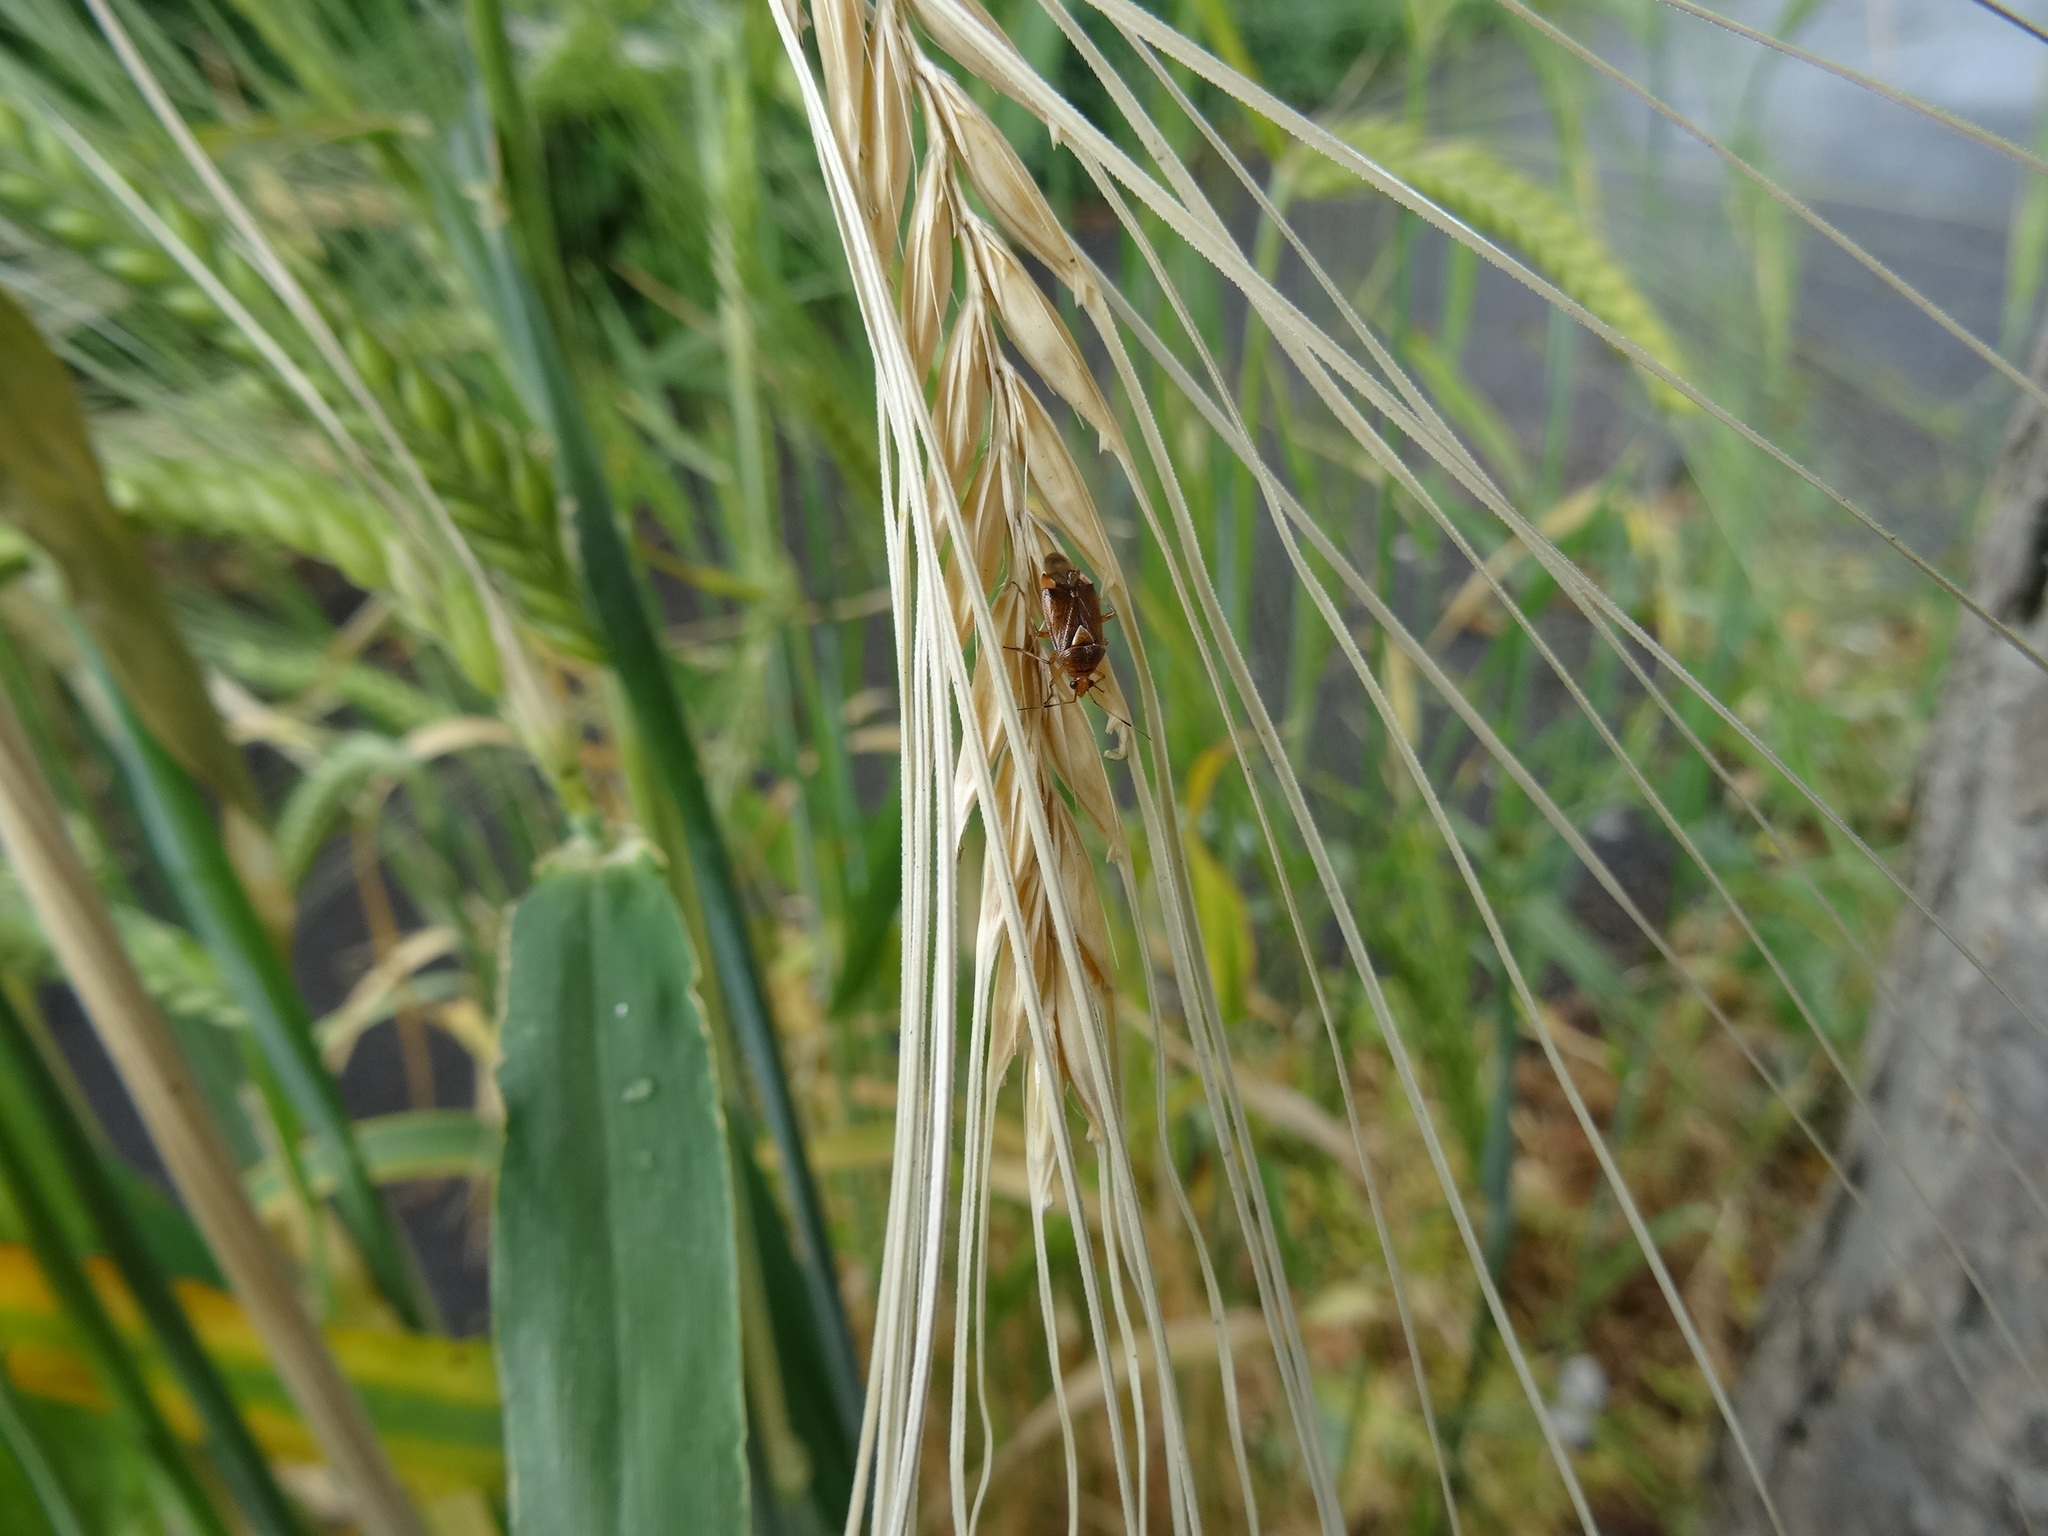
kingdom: Plantae
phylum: Tracheophyta
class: Liliopsida
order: Poales
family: Poaceae
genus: Hordeum
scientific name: Hordeum distichon
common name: Two-rowed barley
